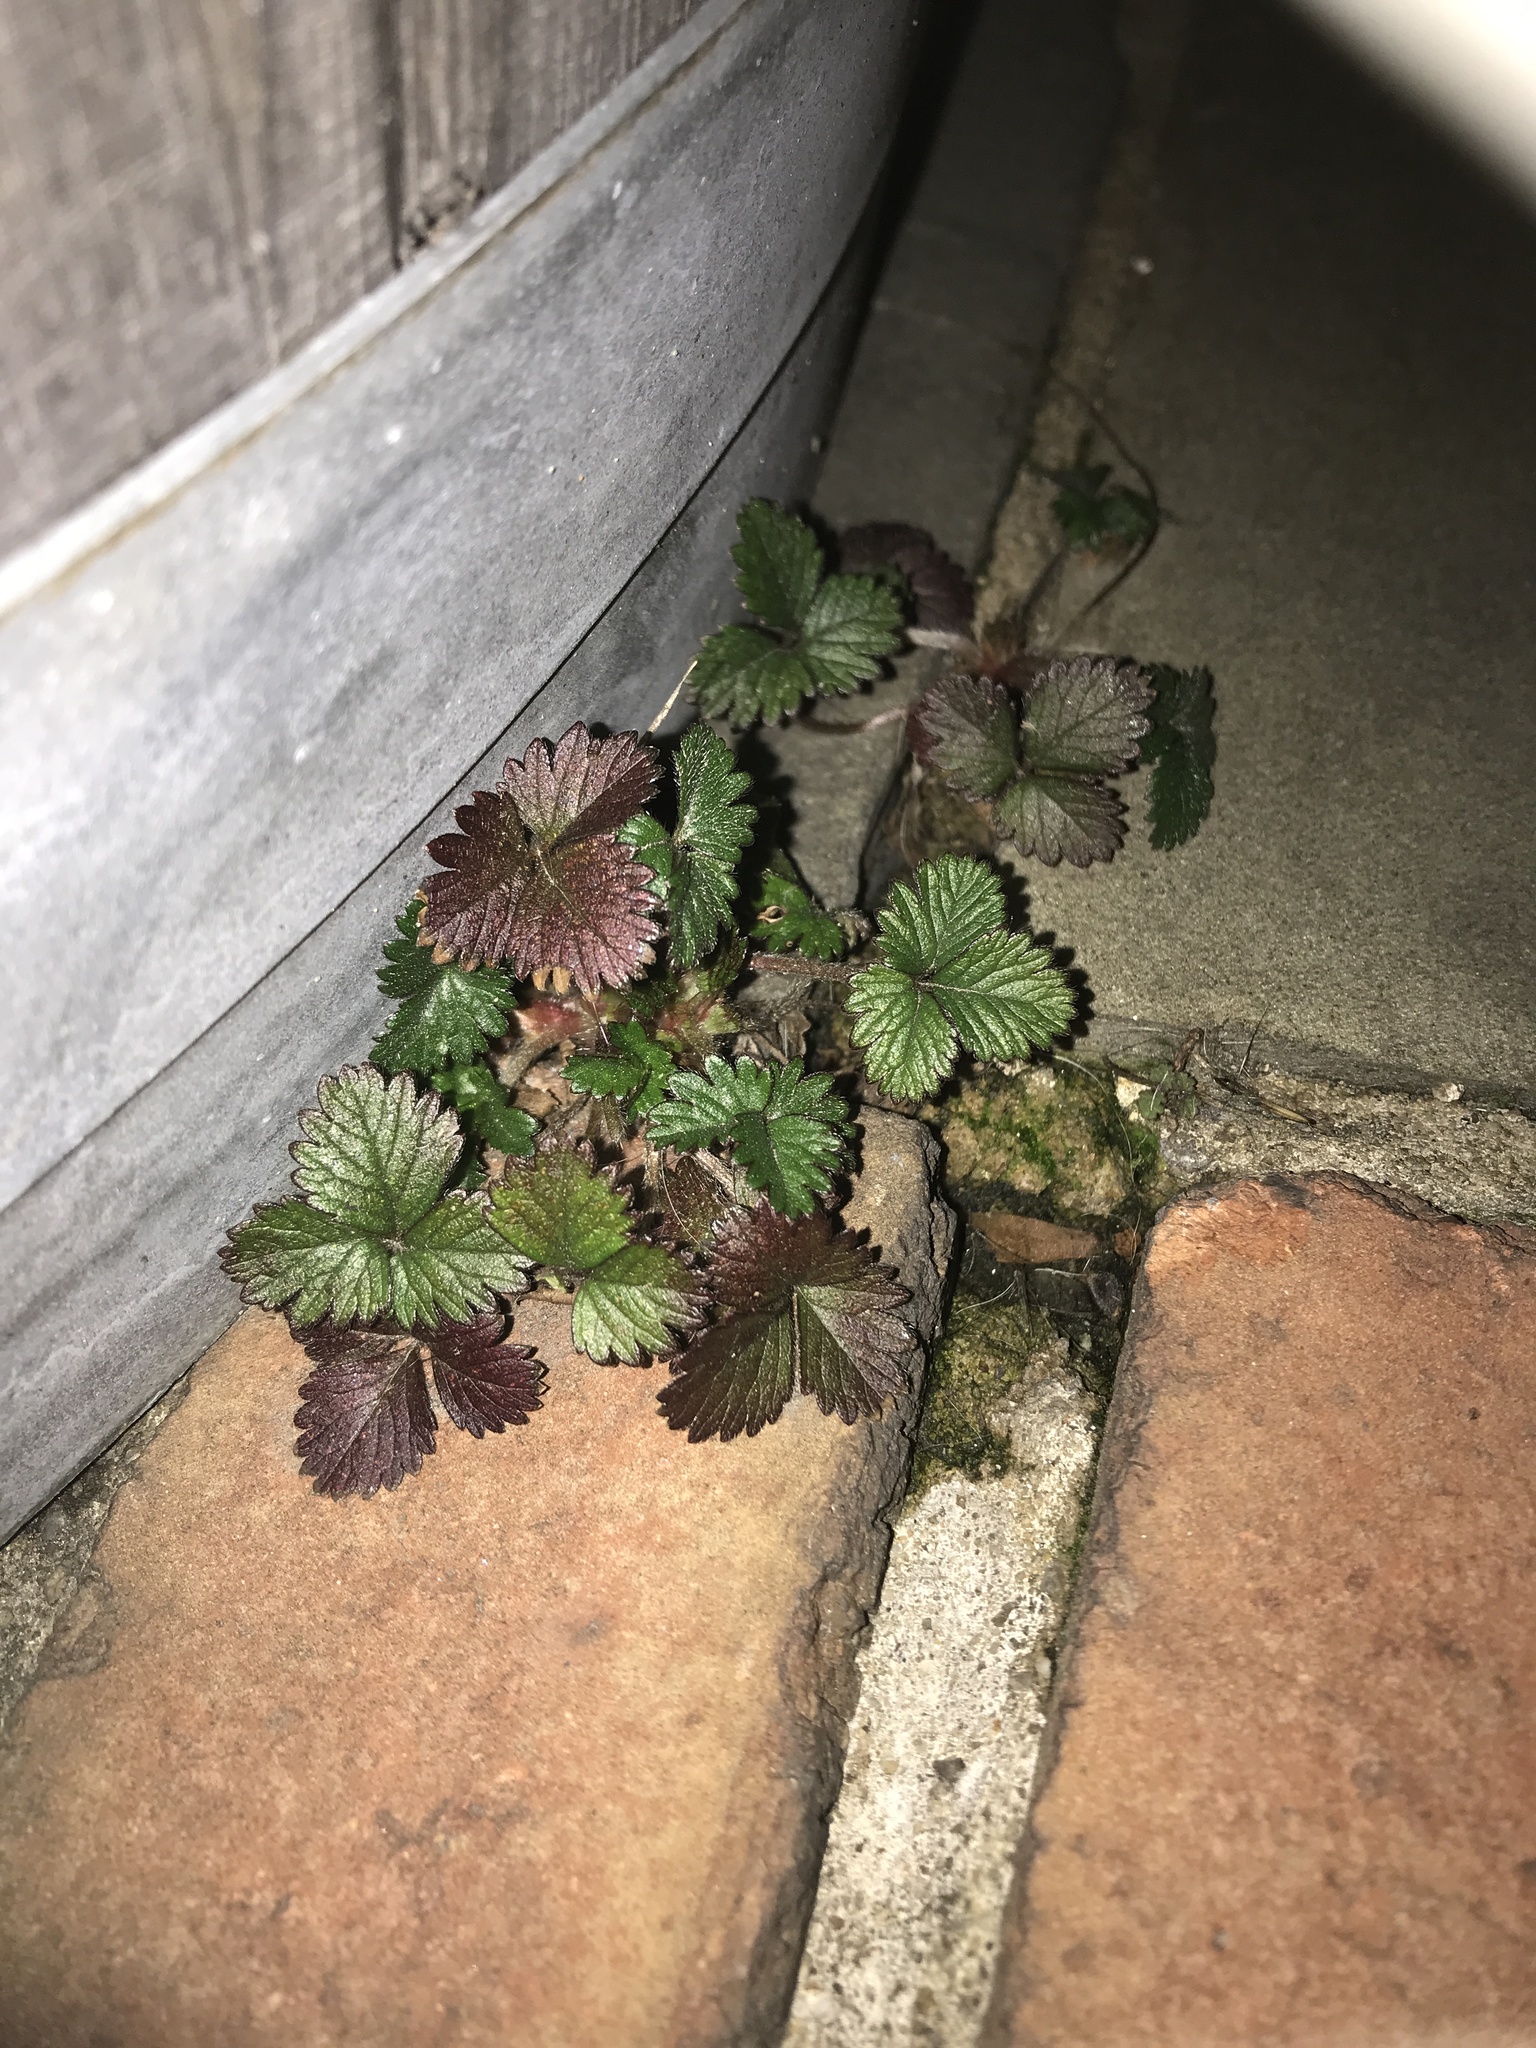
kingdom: Plantae
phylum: Tracheophyta
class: Magnoliopsida
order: Rosales
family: Rosaceae
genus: Potentilla
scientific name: Potentilla indica
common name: Yellow-flowered strawberry
